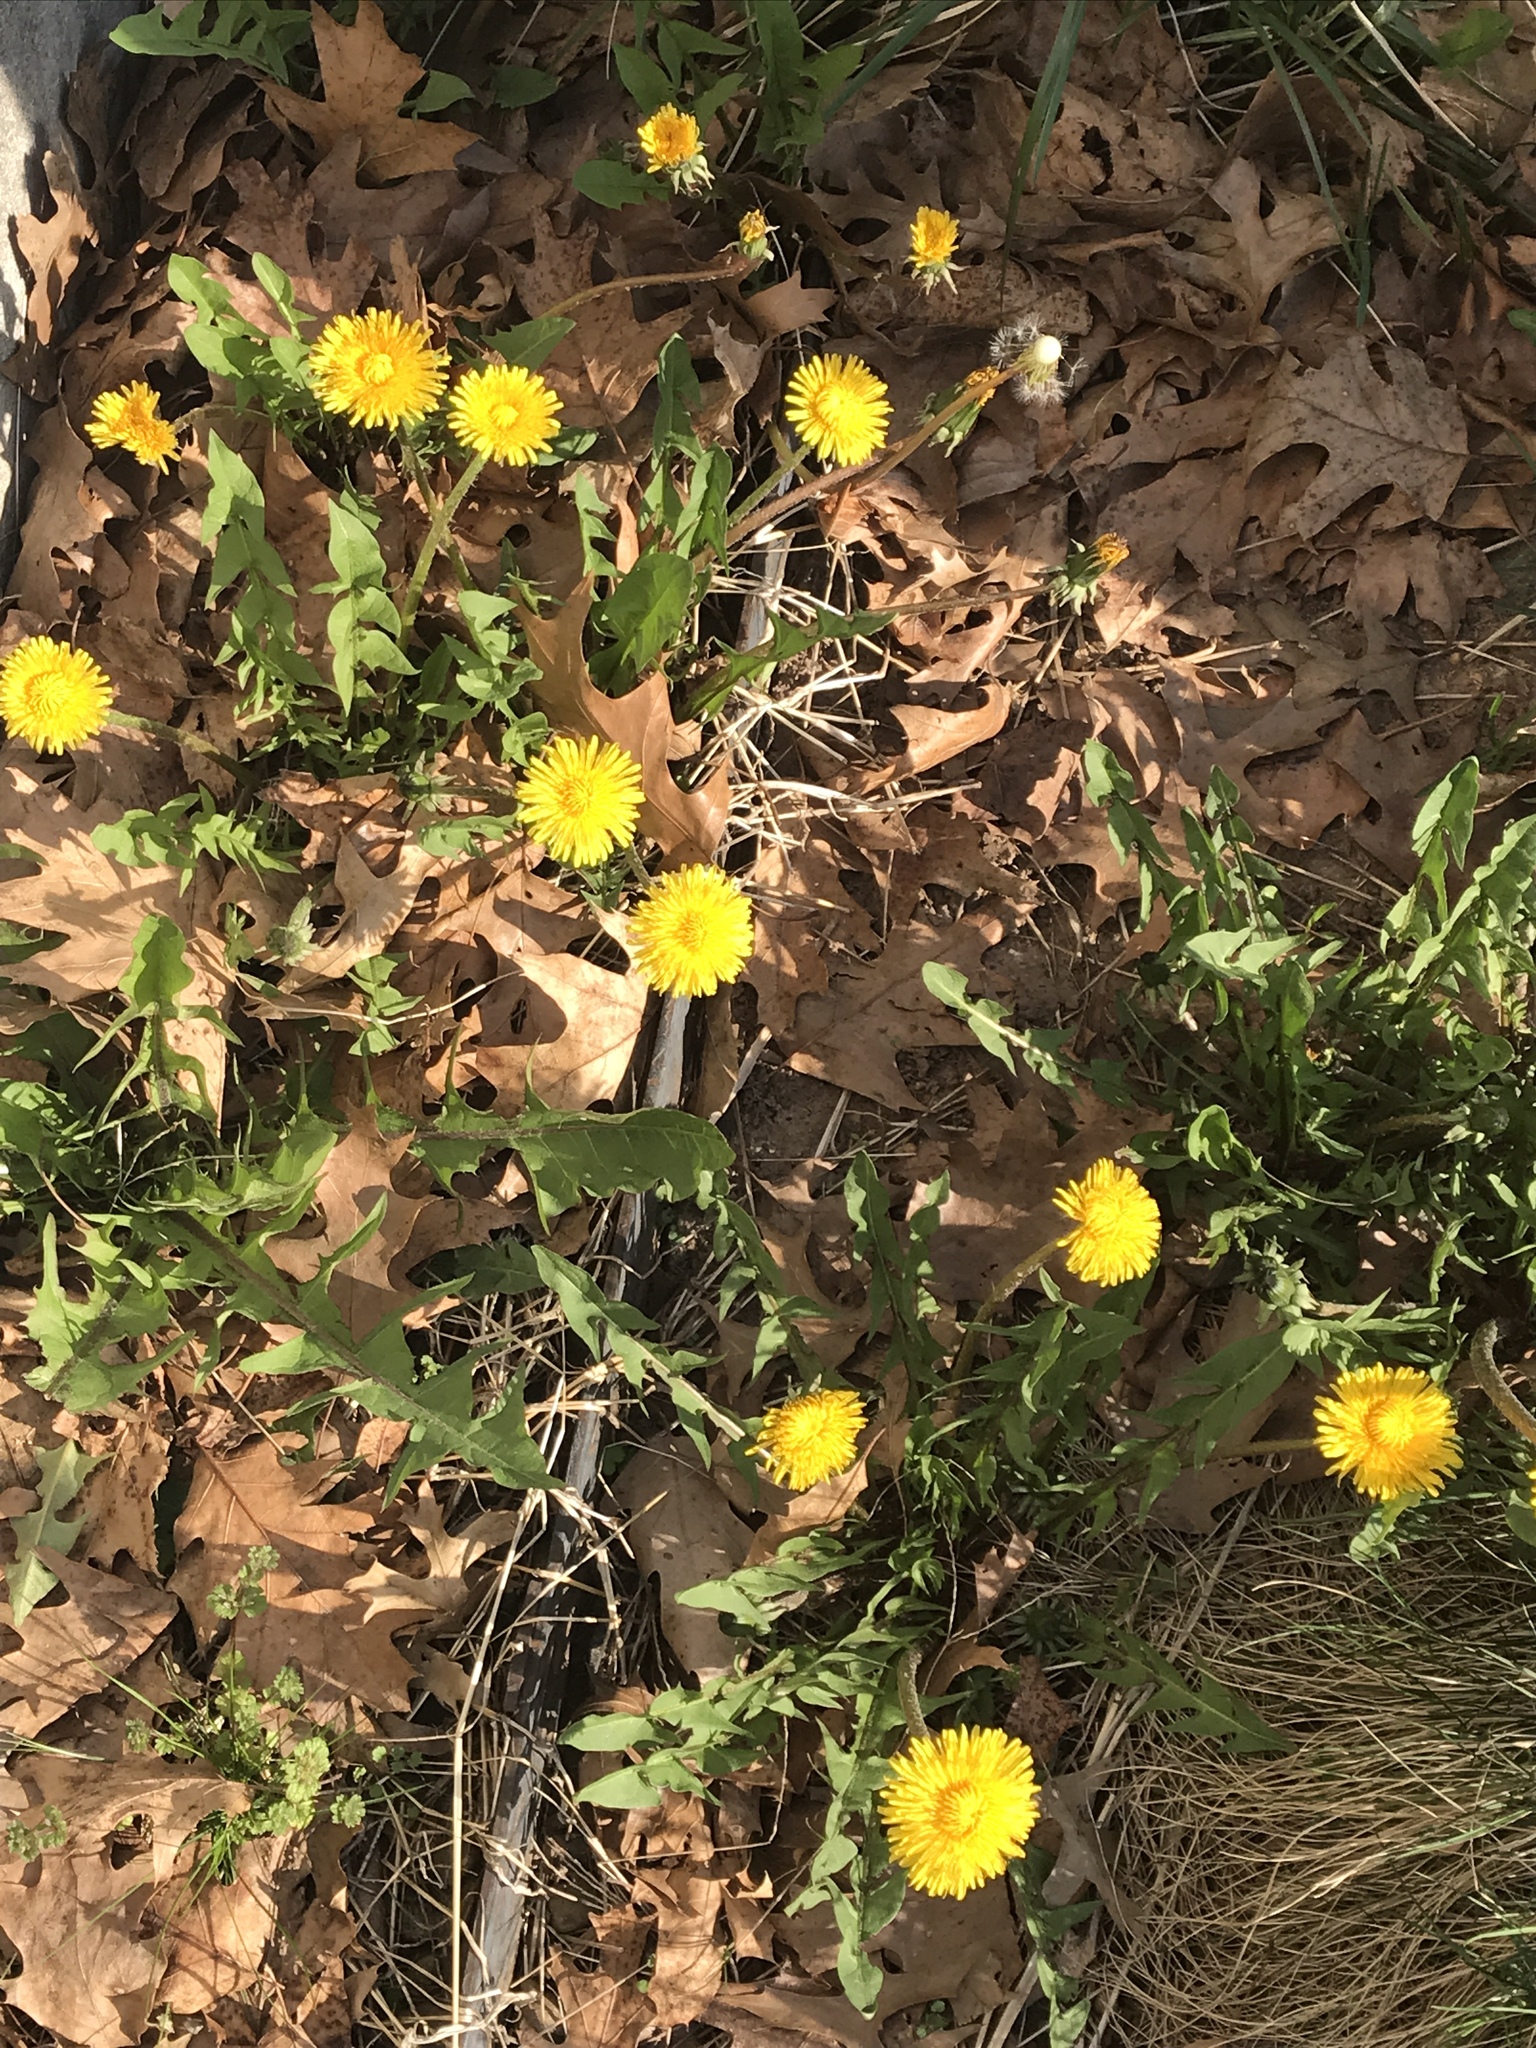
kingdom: Plantae
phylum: Tracheophyta
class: Magnoliopsida
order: Asterales
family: Asteraceae
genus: Taraxacum
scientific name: Taraxacum officinale
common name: Common dandelion
